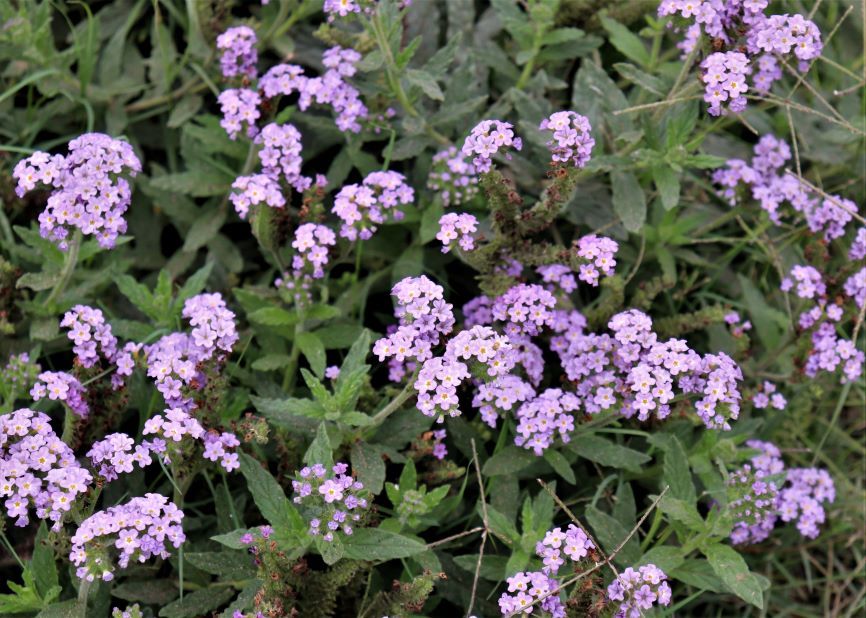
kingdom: Plantae
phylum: Tracheophyta
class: Magnoliopsida
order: Boraginales
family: Heliotropiaceae
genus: Heliotropium
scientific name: Heliotropium amplexicaule
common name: Clasping heliotrope
